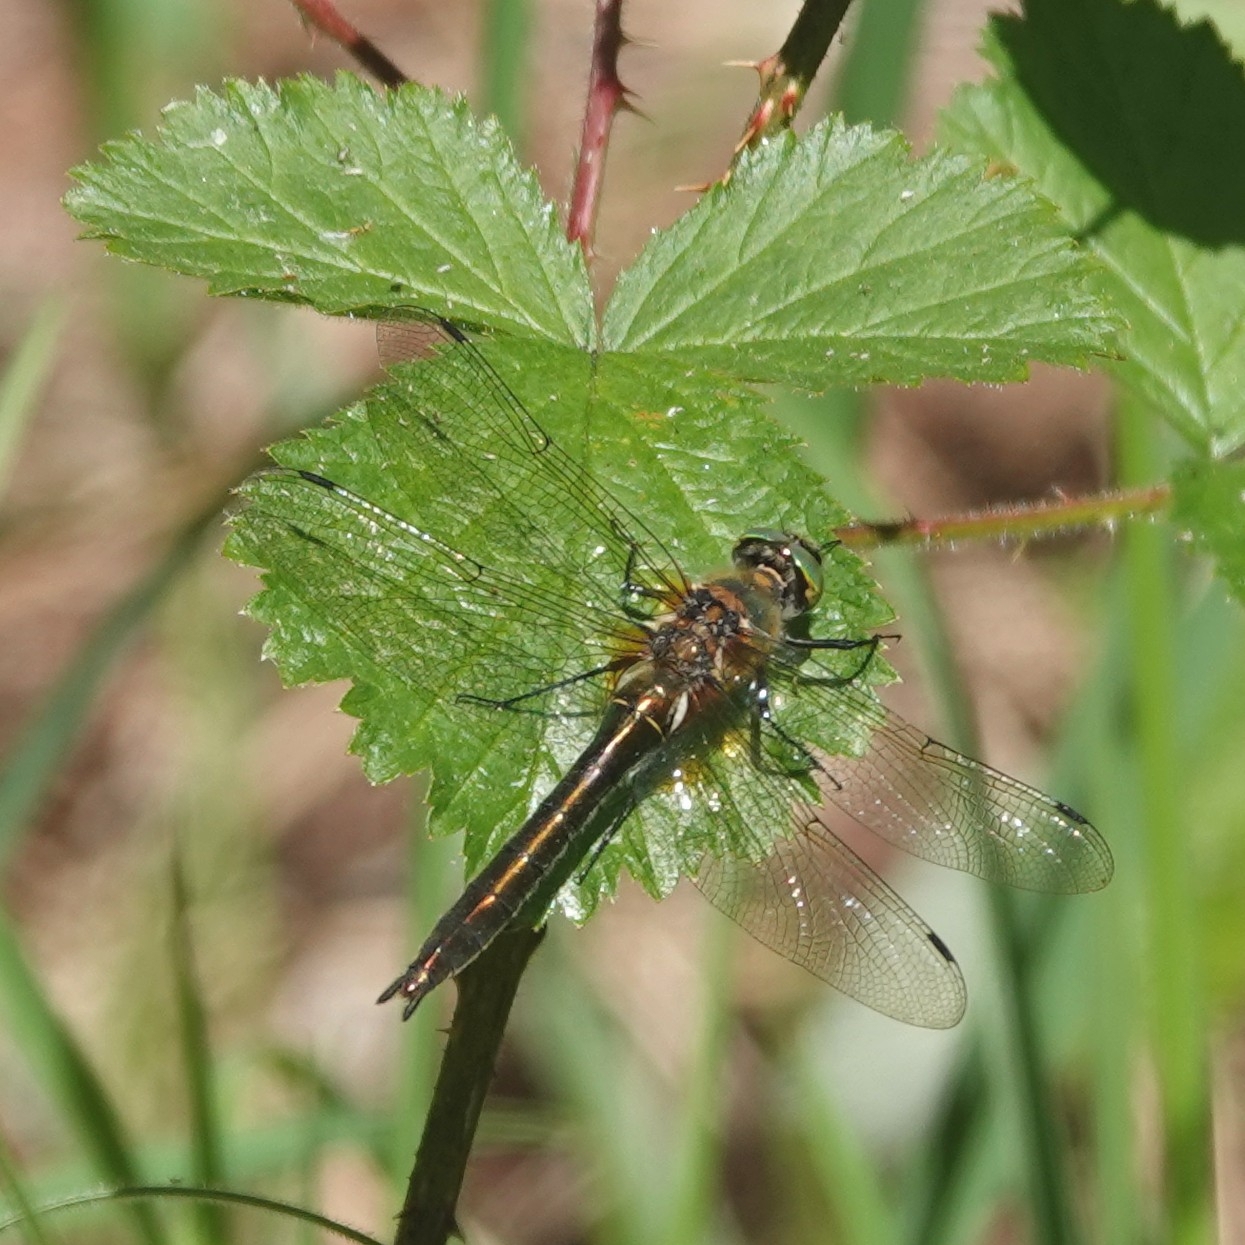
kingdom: Animalia
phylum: Arthropoda
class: Insecta
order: Odonata
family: Corduliidae
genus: Cordulia
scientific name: Cordulia aenea
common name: Downy emerald
